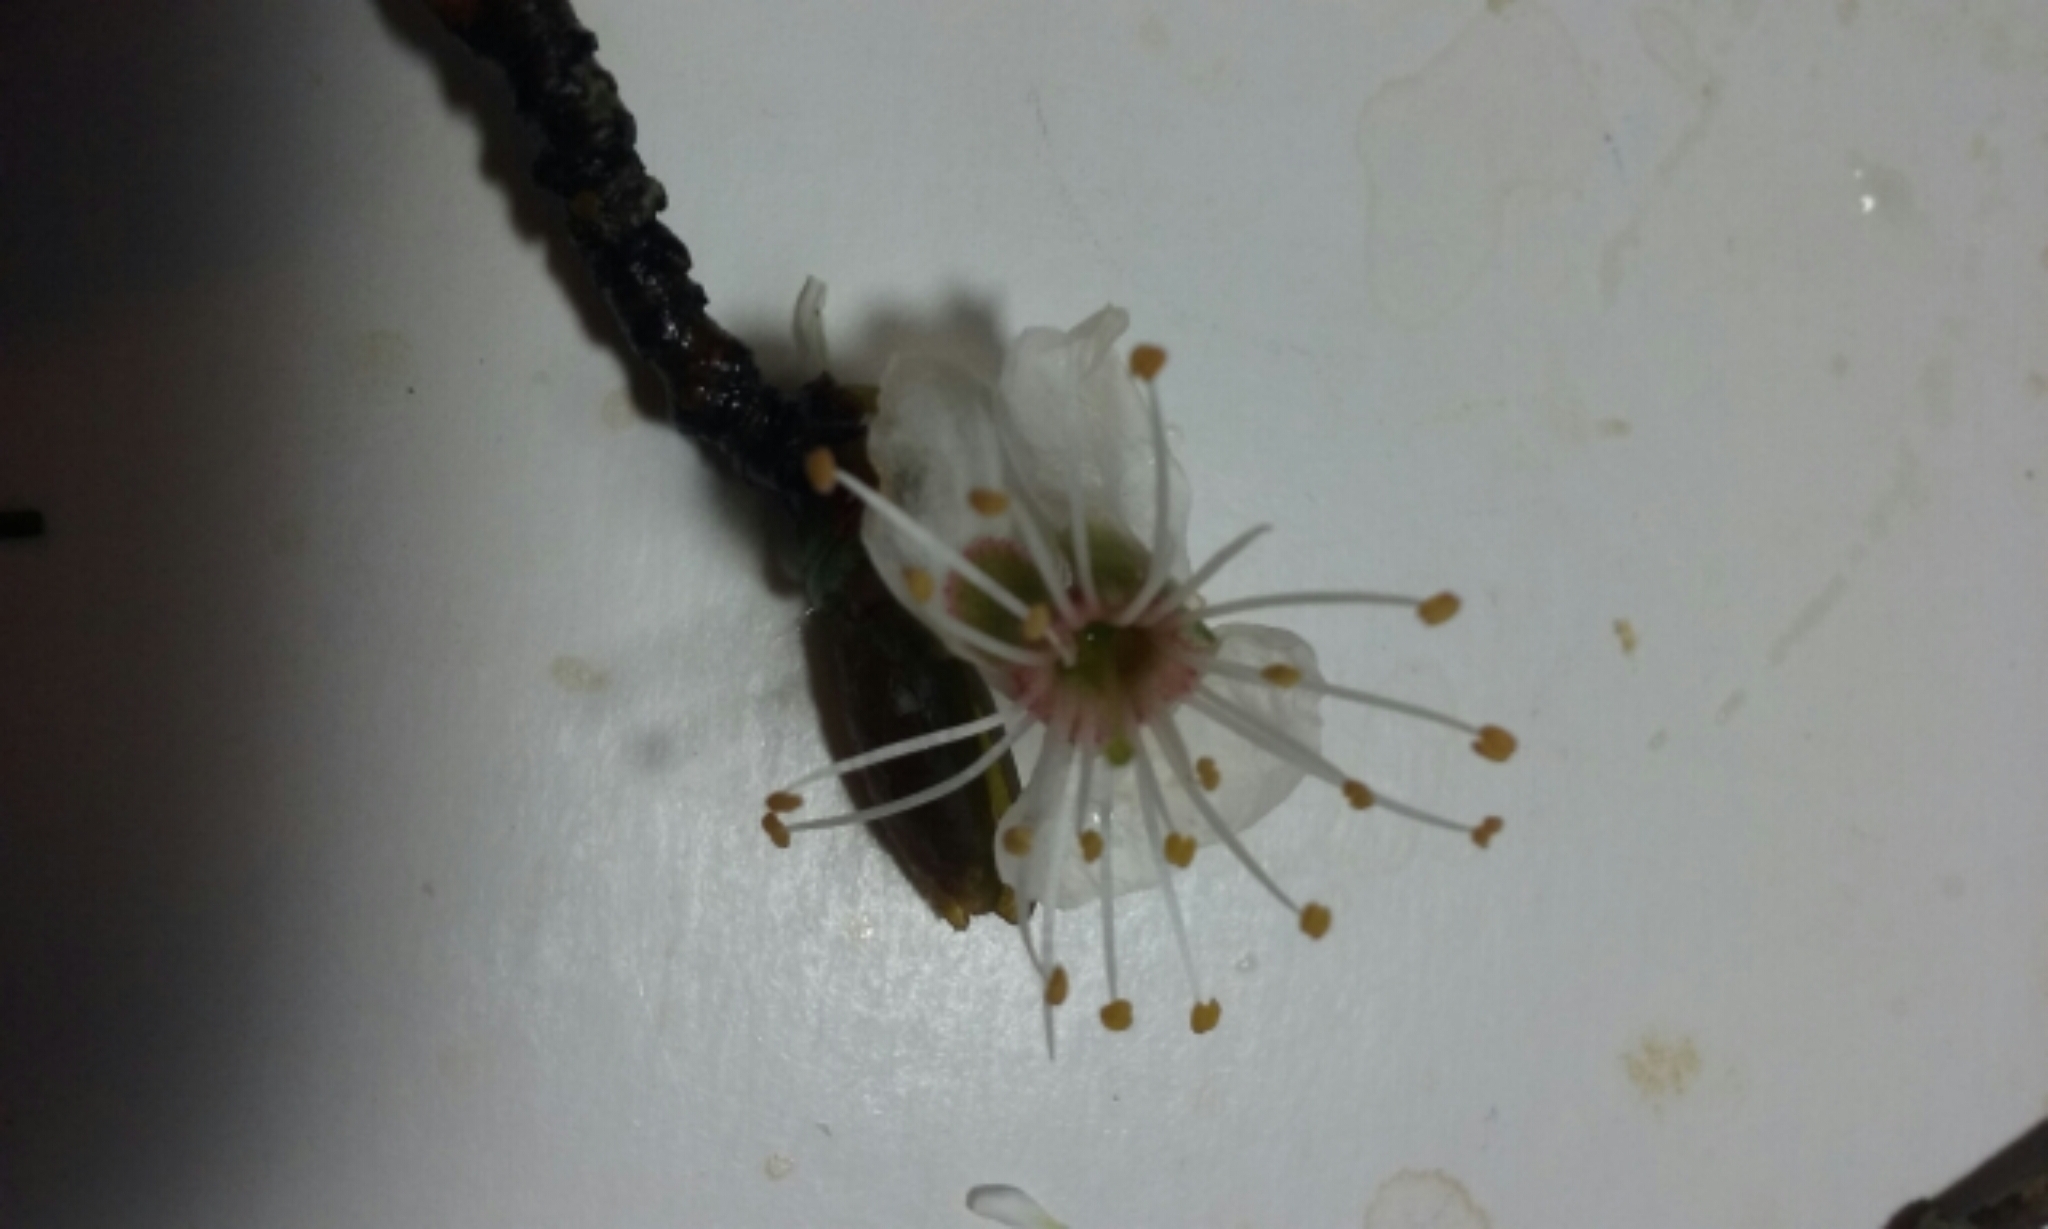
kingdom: Plantae
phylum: Tracheophyta
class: Magnoliopsida
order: Rosales
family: Rosaceae
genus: Prunus
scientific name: Prunus cerasifera
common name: Cherry plum
